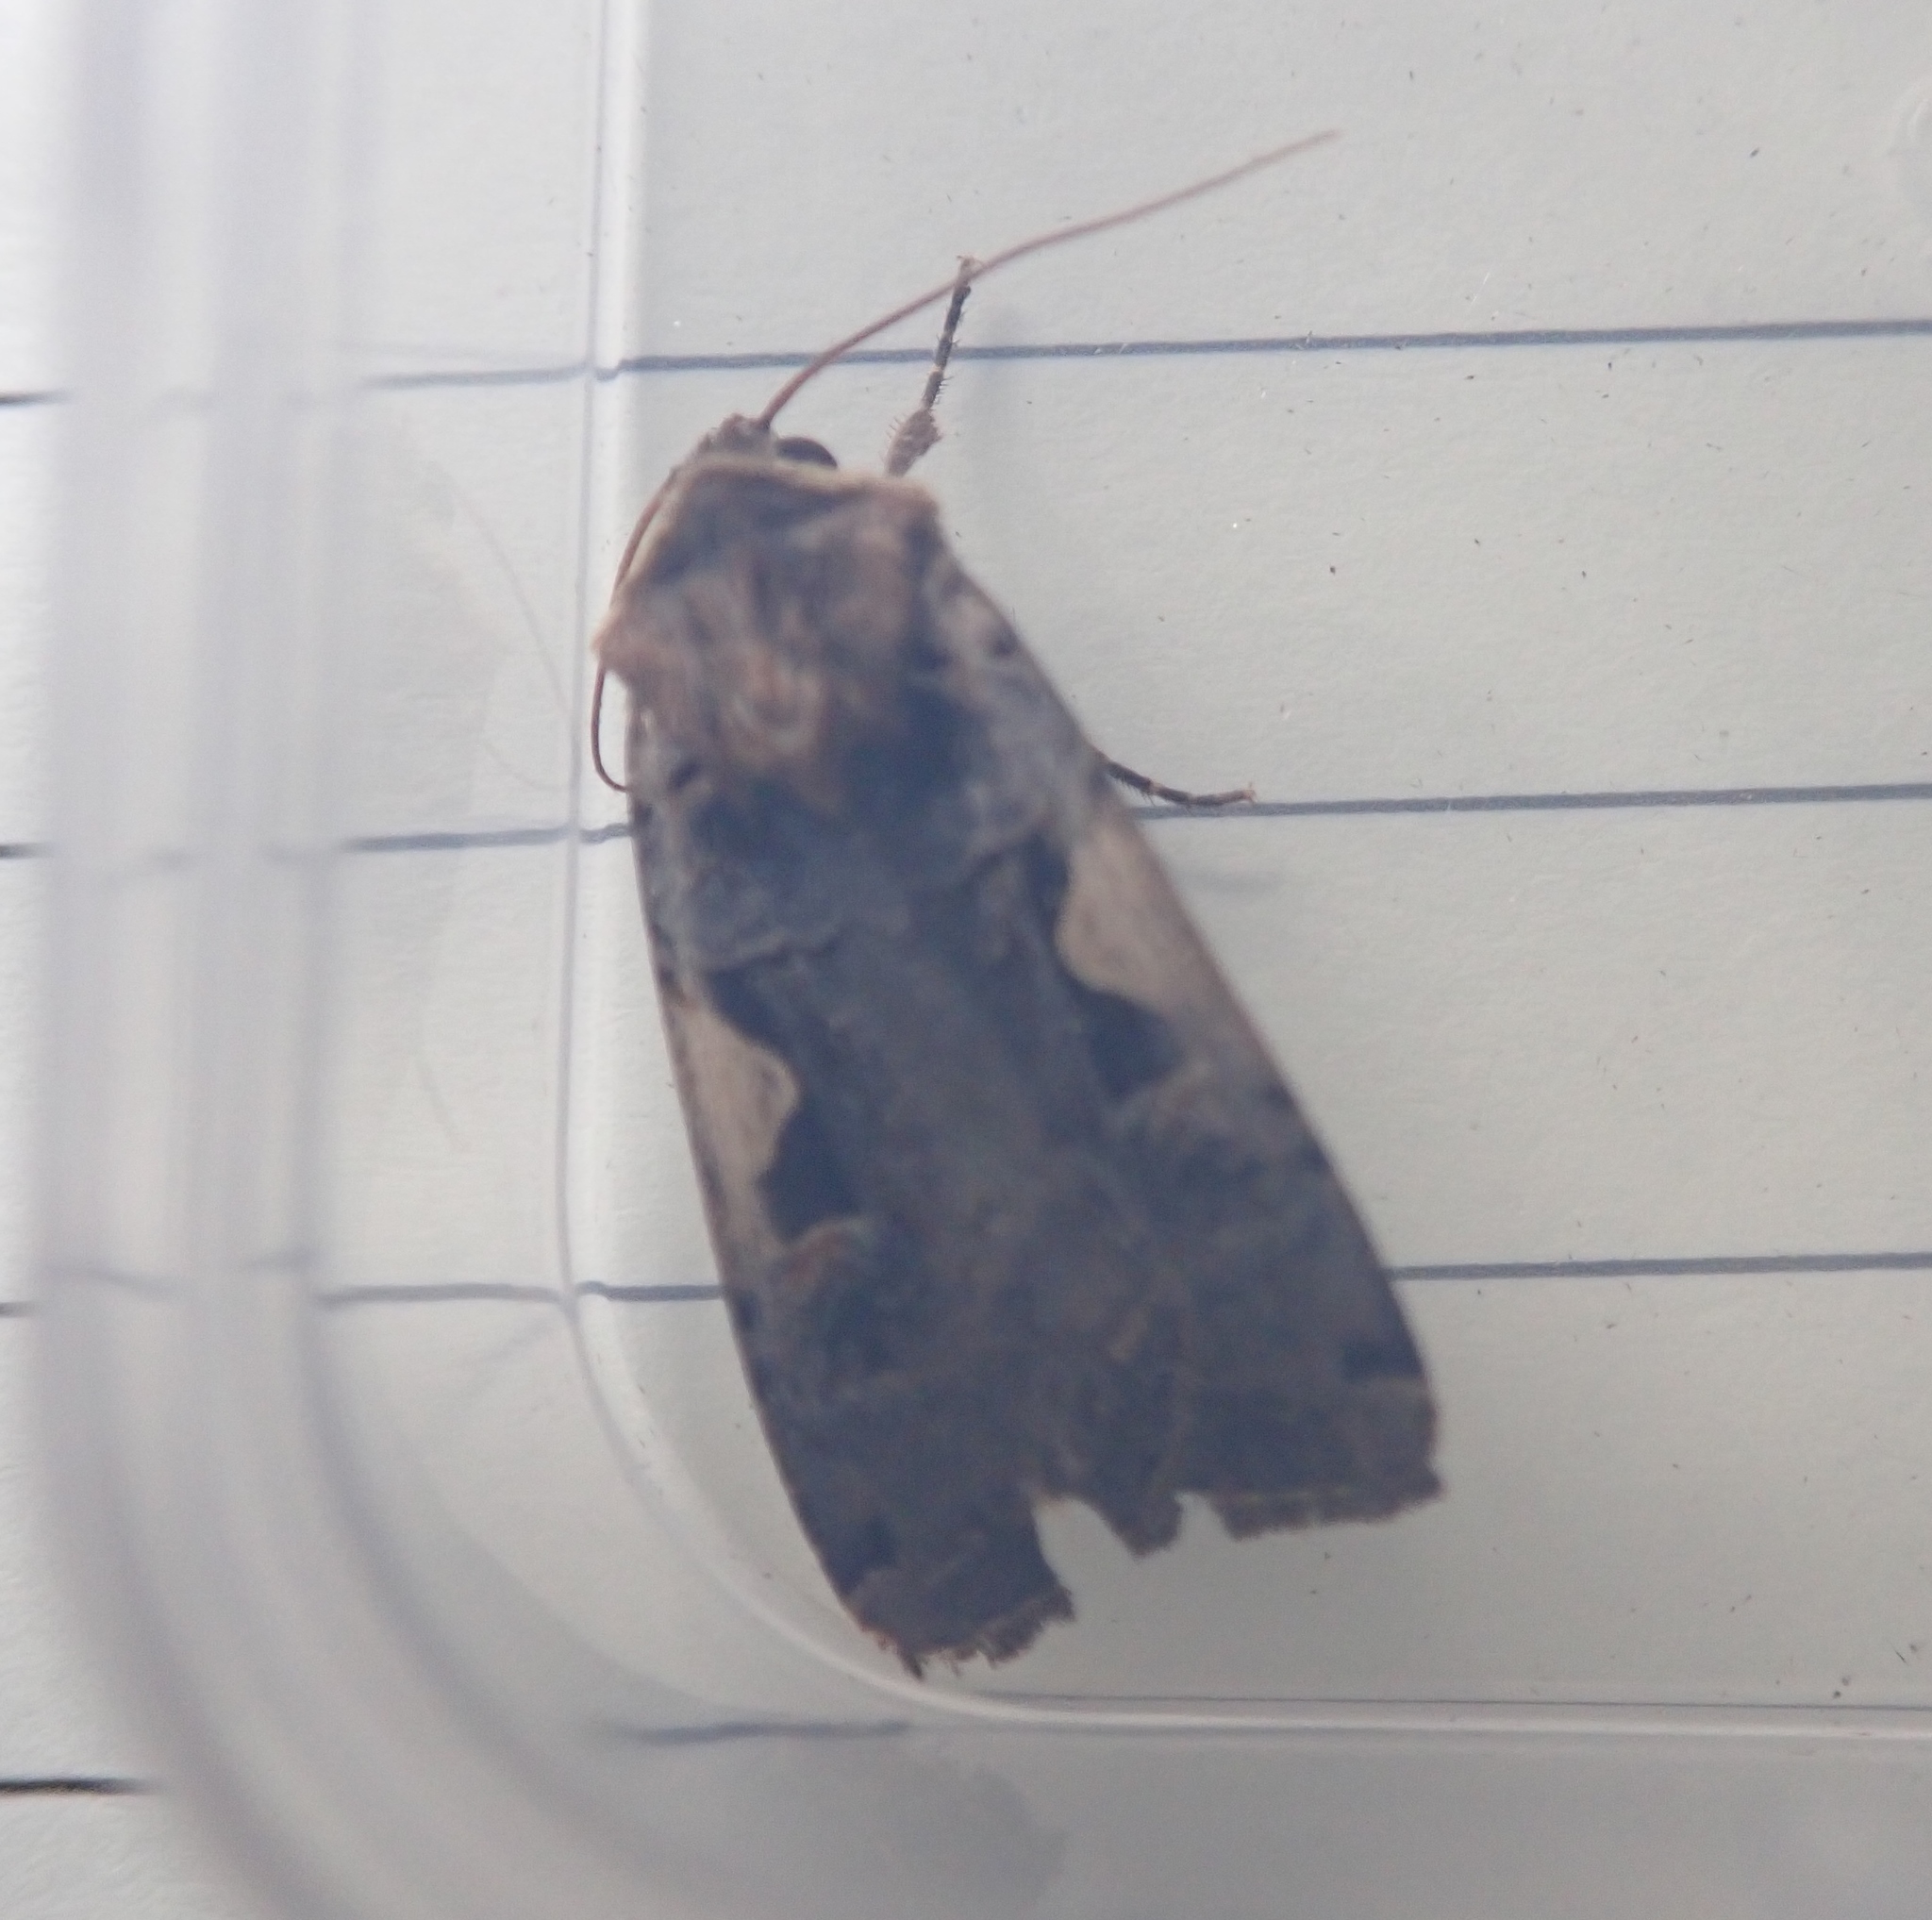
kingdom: Animalia
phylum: Arthropoda
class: Insecta
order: Lepidoptera
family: Noctuidae
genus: Xestia
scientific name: Xestia c-nigrum
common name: Setaceous hebrew character
